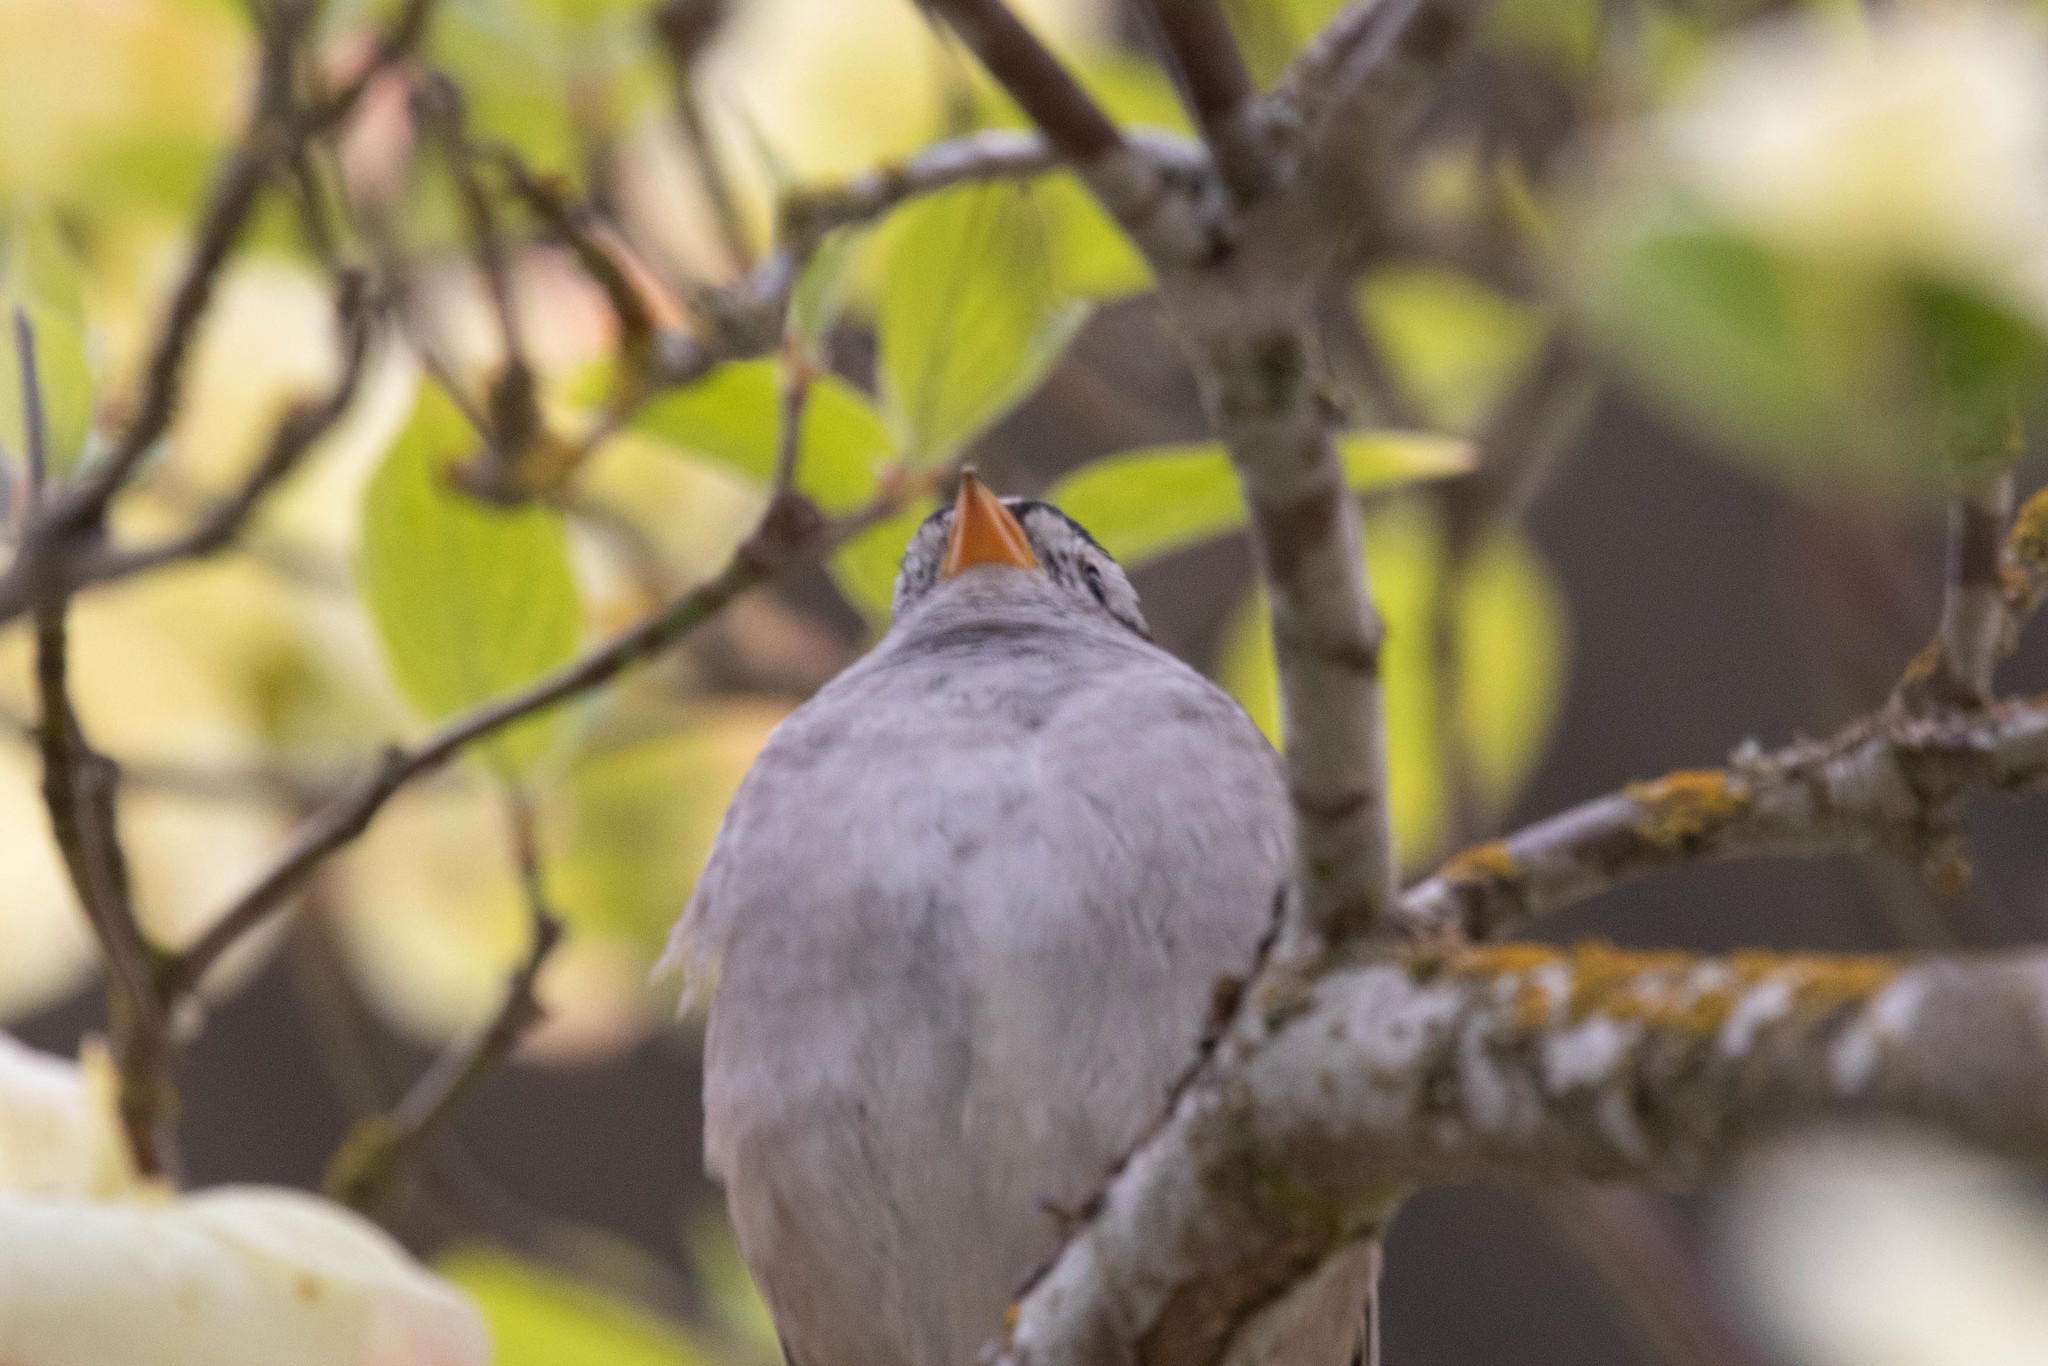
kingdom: Animalia
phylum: Chordata
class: Aves
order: Passeriformes
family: Passerellidae
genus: Zonotrichia
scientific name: Zonotrichia leucophrys
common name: White-crowned sparrow
